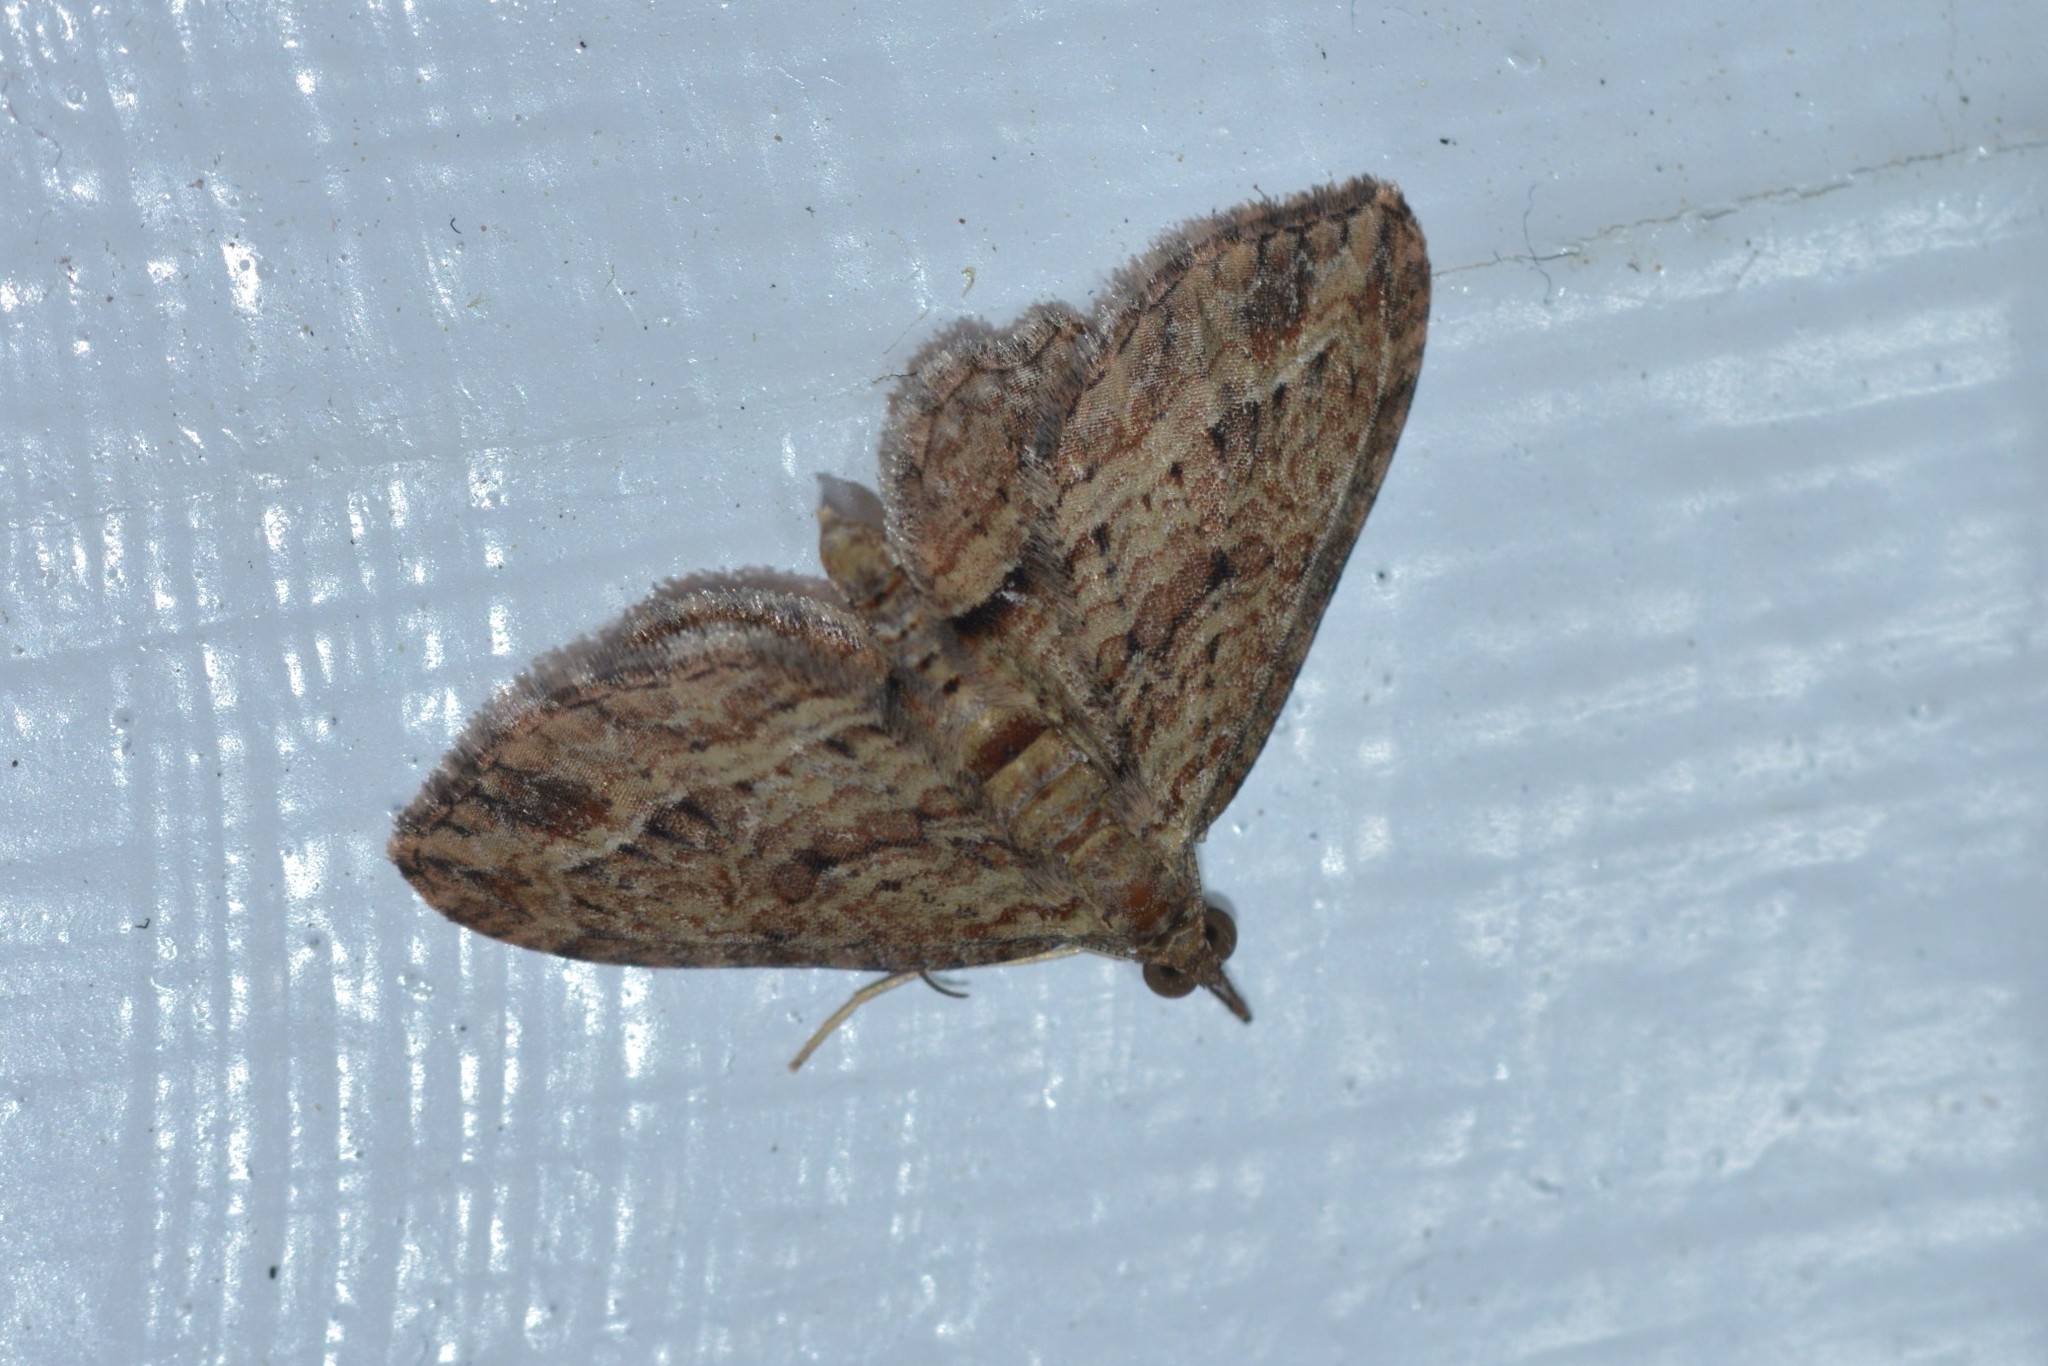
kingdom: Animalia
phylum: Arthropoda
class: Insecta
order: Lepidoptera
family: Geometridae
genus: Chloroclystis
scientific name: Chloroclystis filata
